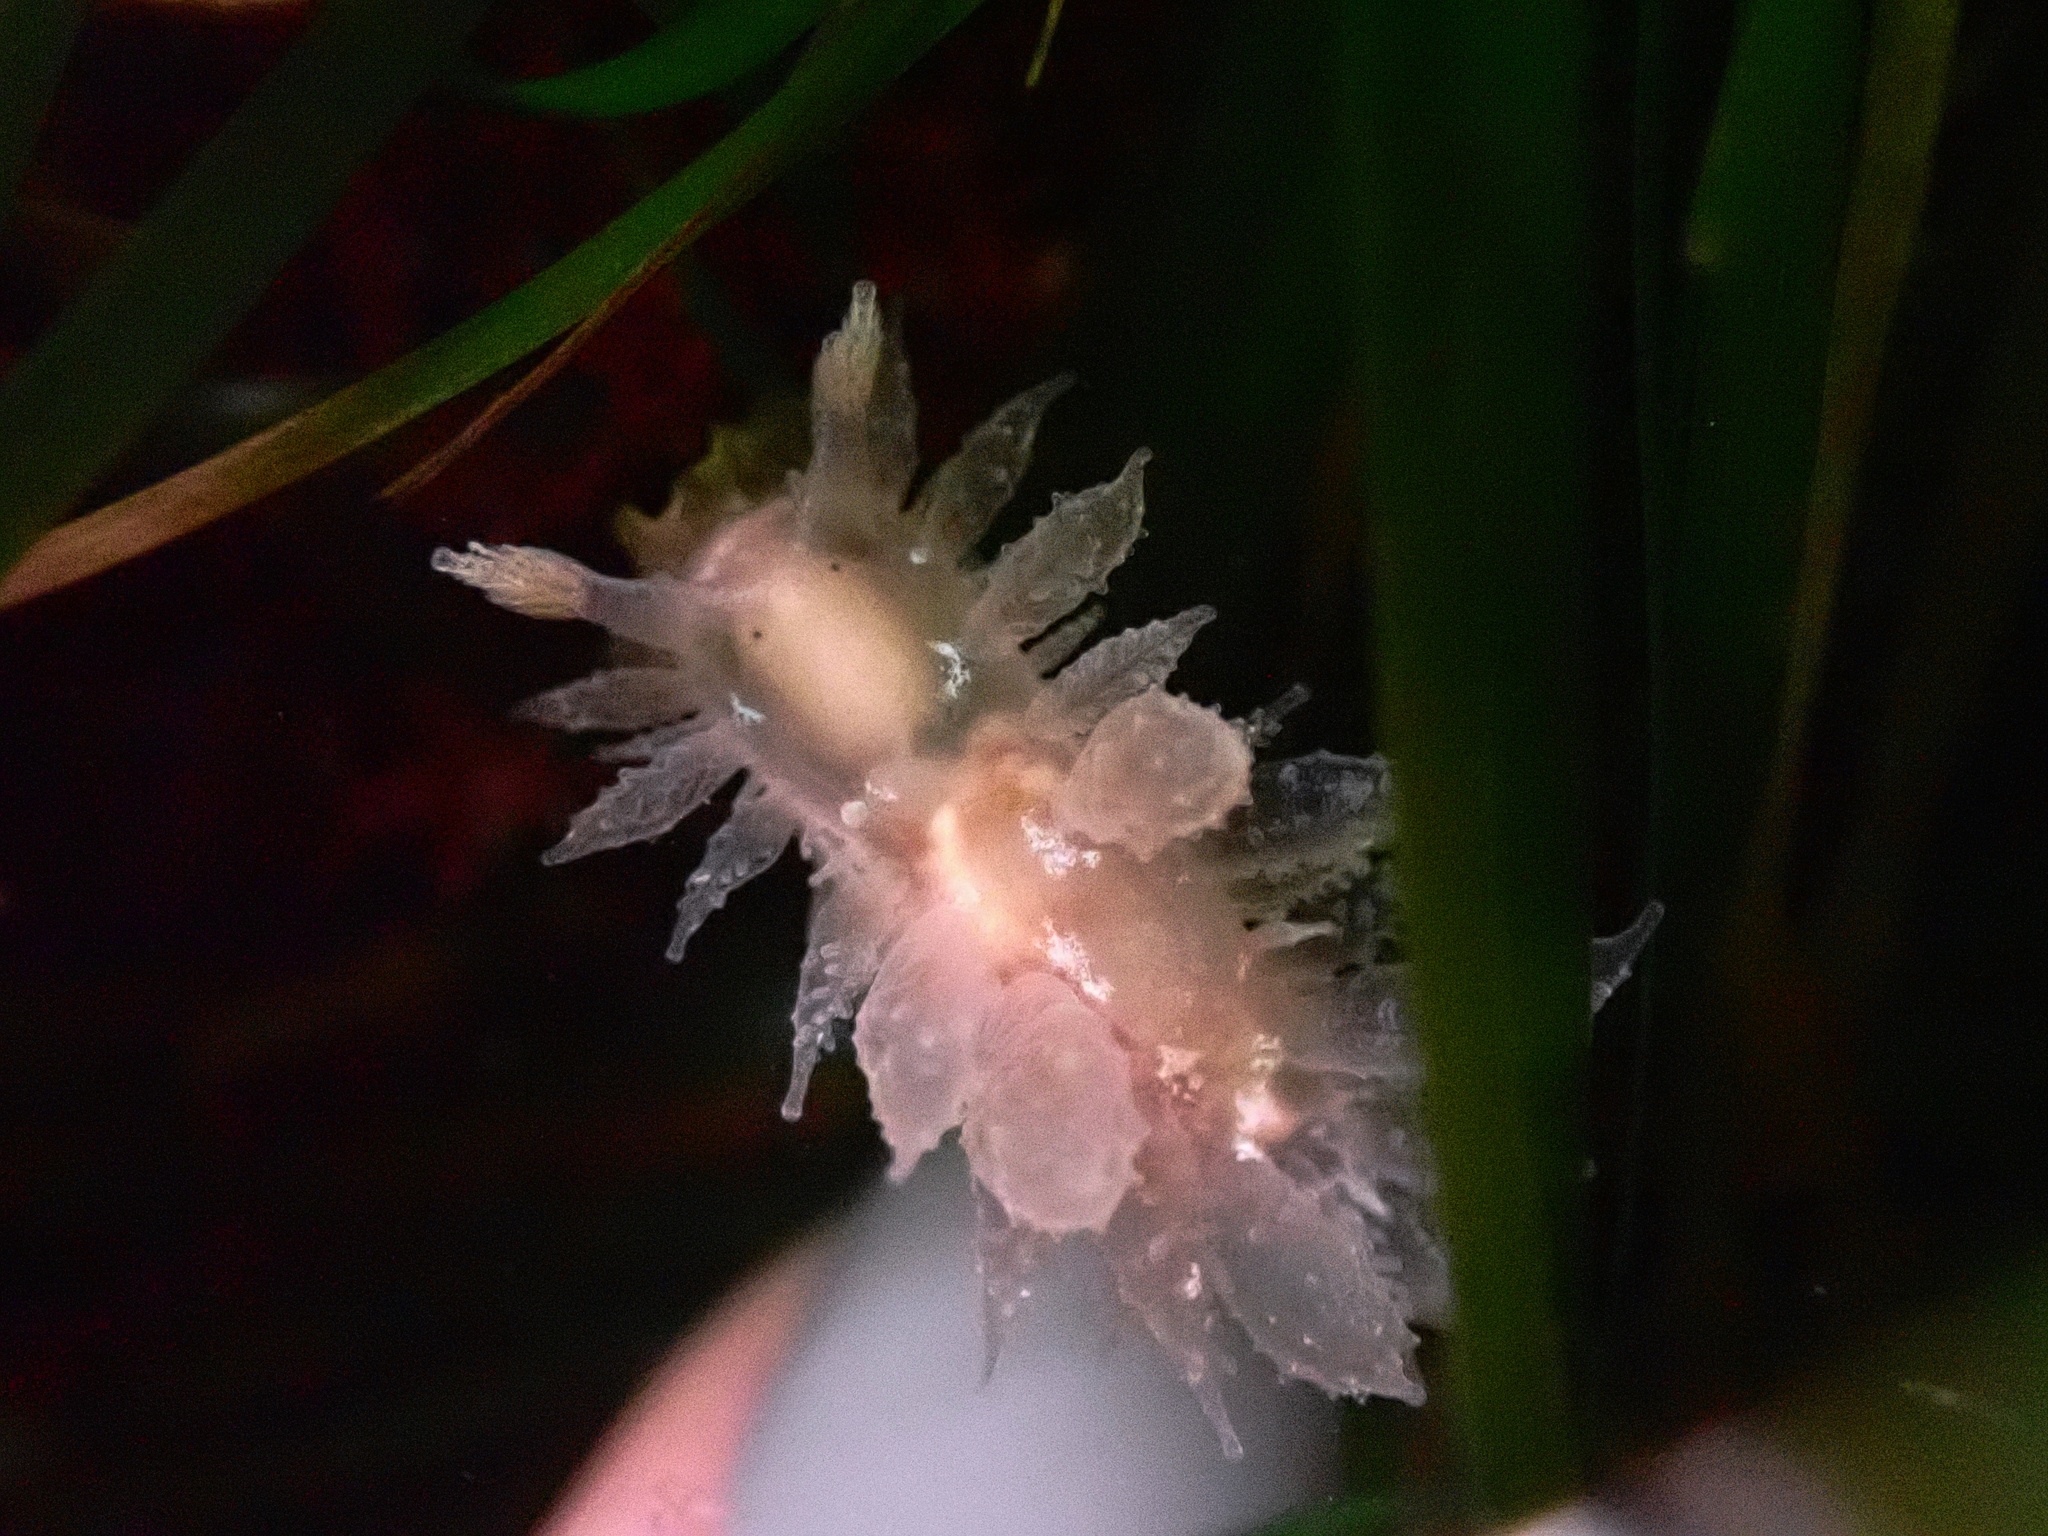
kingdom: Animalia
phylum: Mollusca
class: Gastropoda
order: Nudibranchia
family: Dironidae
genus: Dirona
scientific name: Dirona picta
